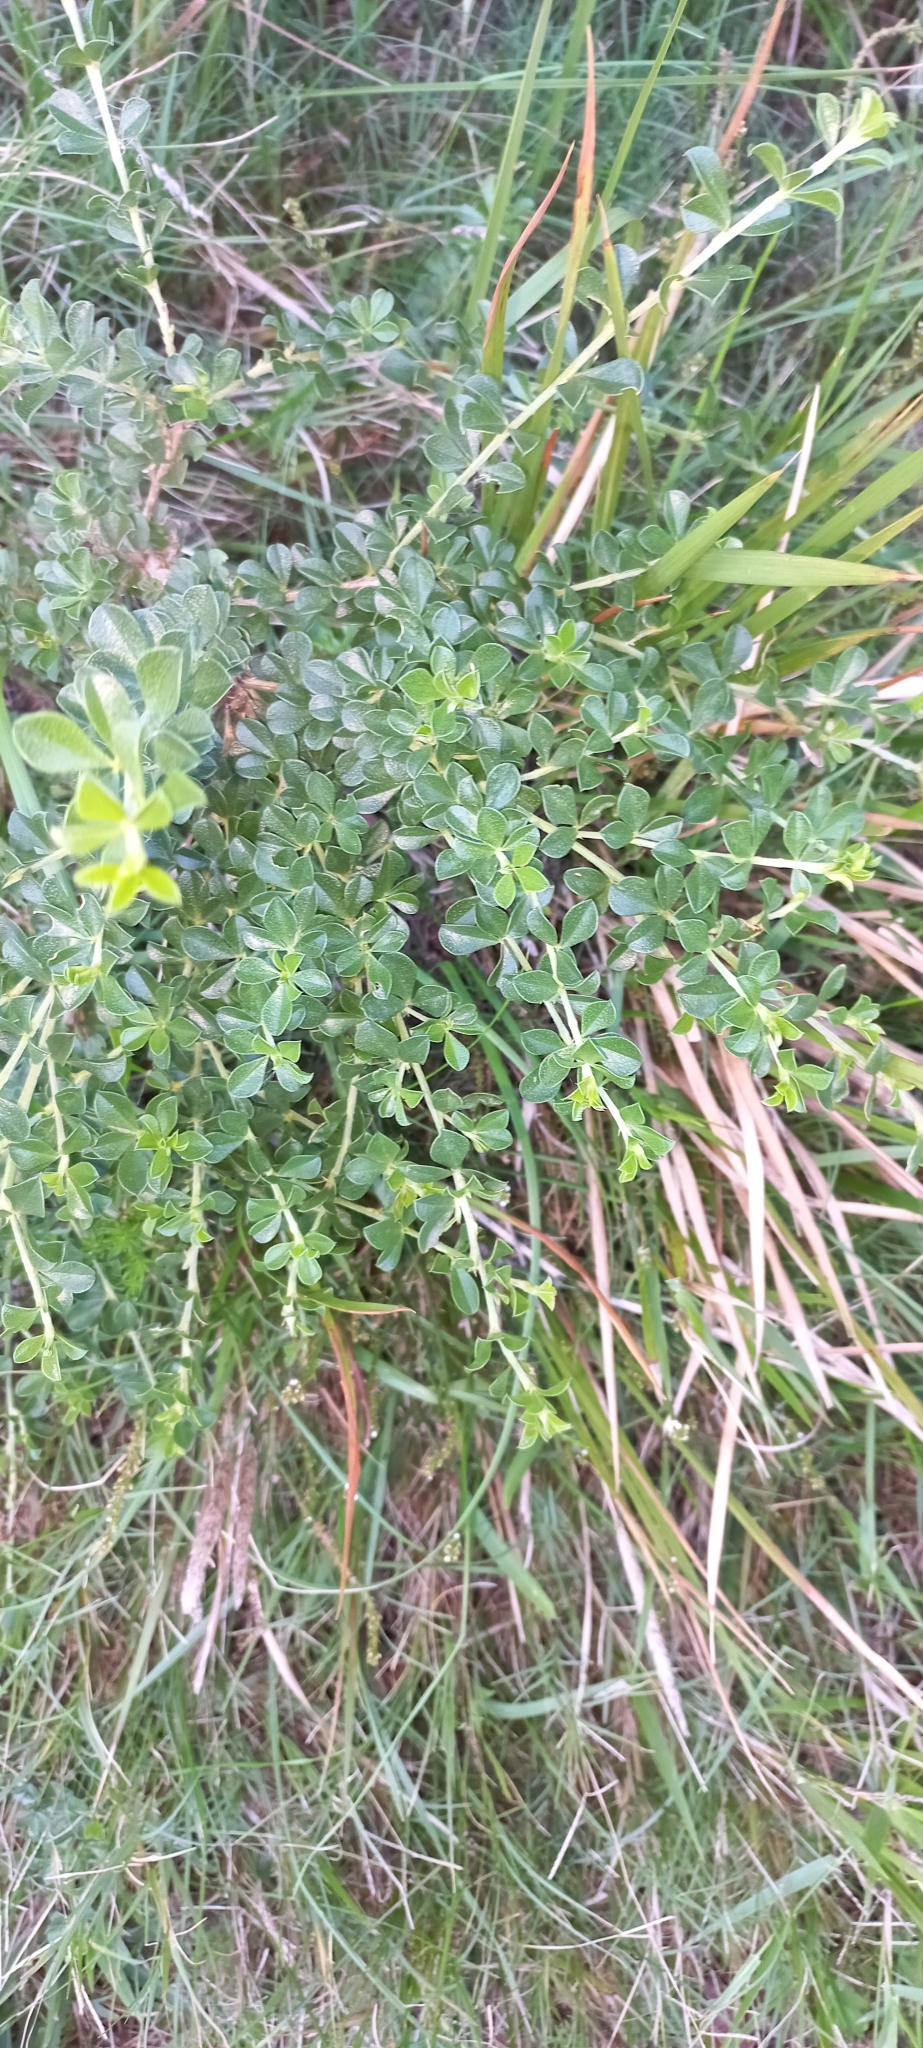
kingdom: Plantae
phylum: Tracheophyta
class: Magnoliopsida
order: Fabales
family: Fabaceae
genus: Psoralea
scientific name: Psoralea bracteolata
